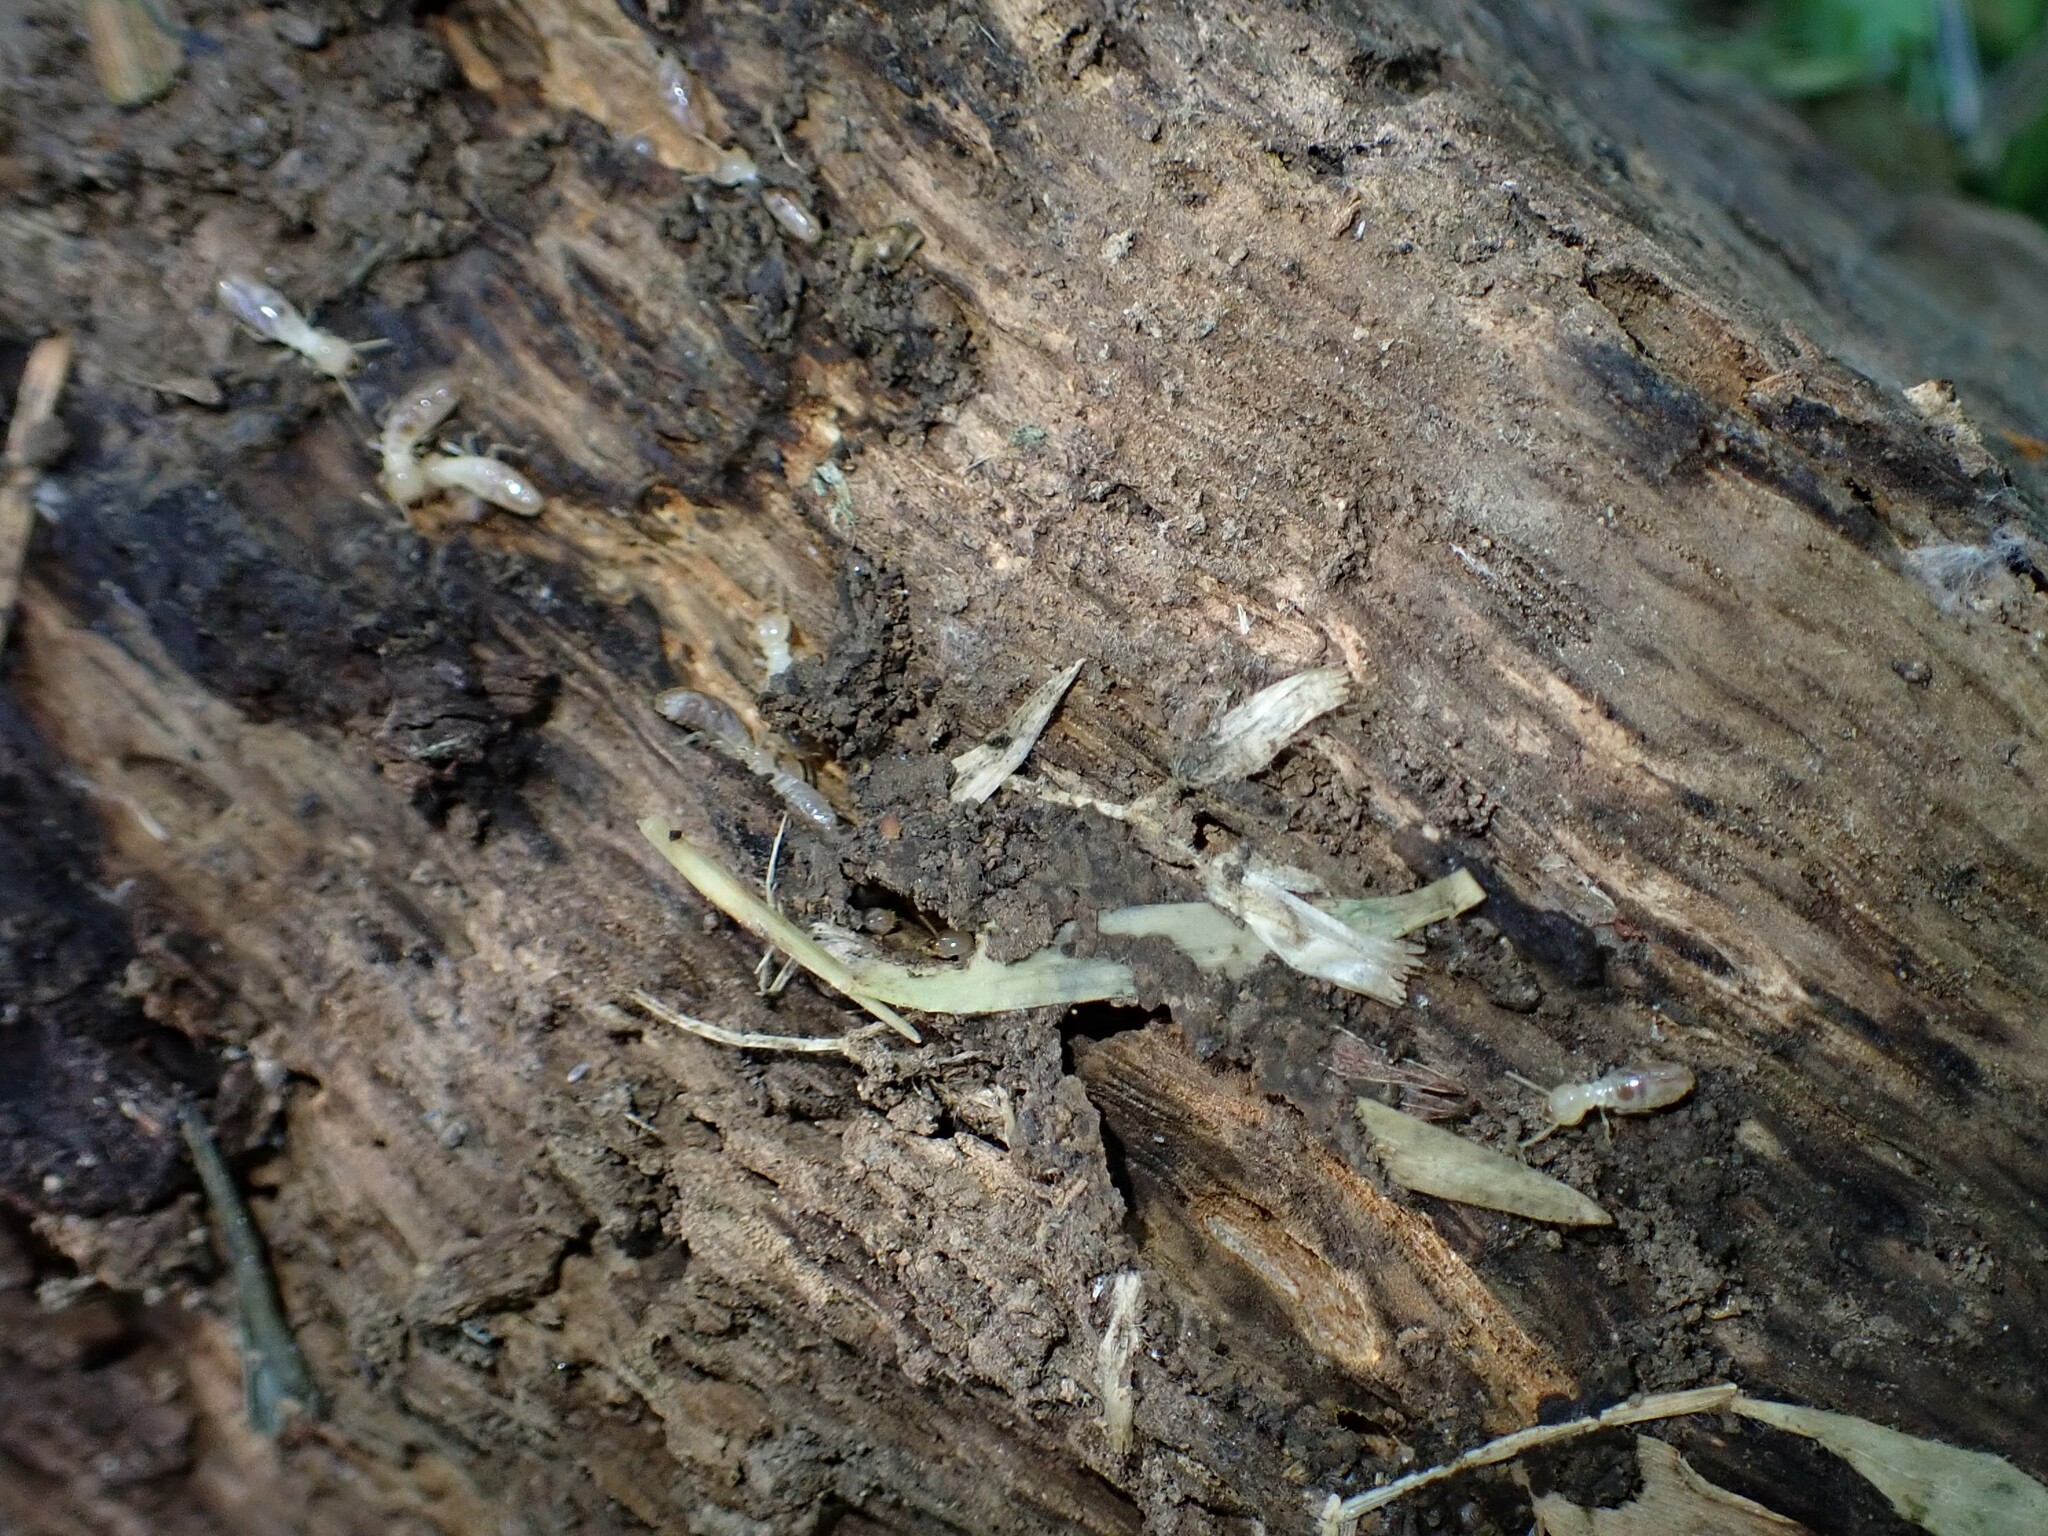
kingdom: Animalia
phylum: Arthropoda
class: Insecta
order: Blattodea
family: Rhinotermitidae
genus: Reticulitermes
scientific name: Reticulitermes flavipes
